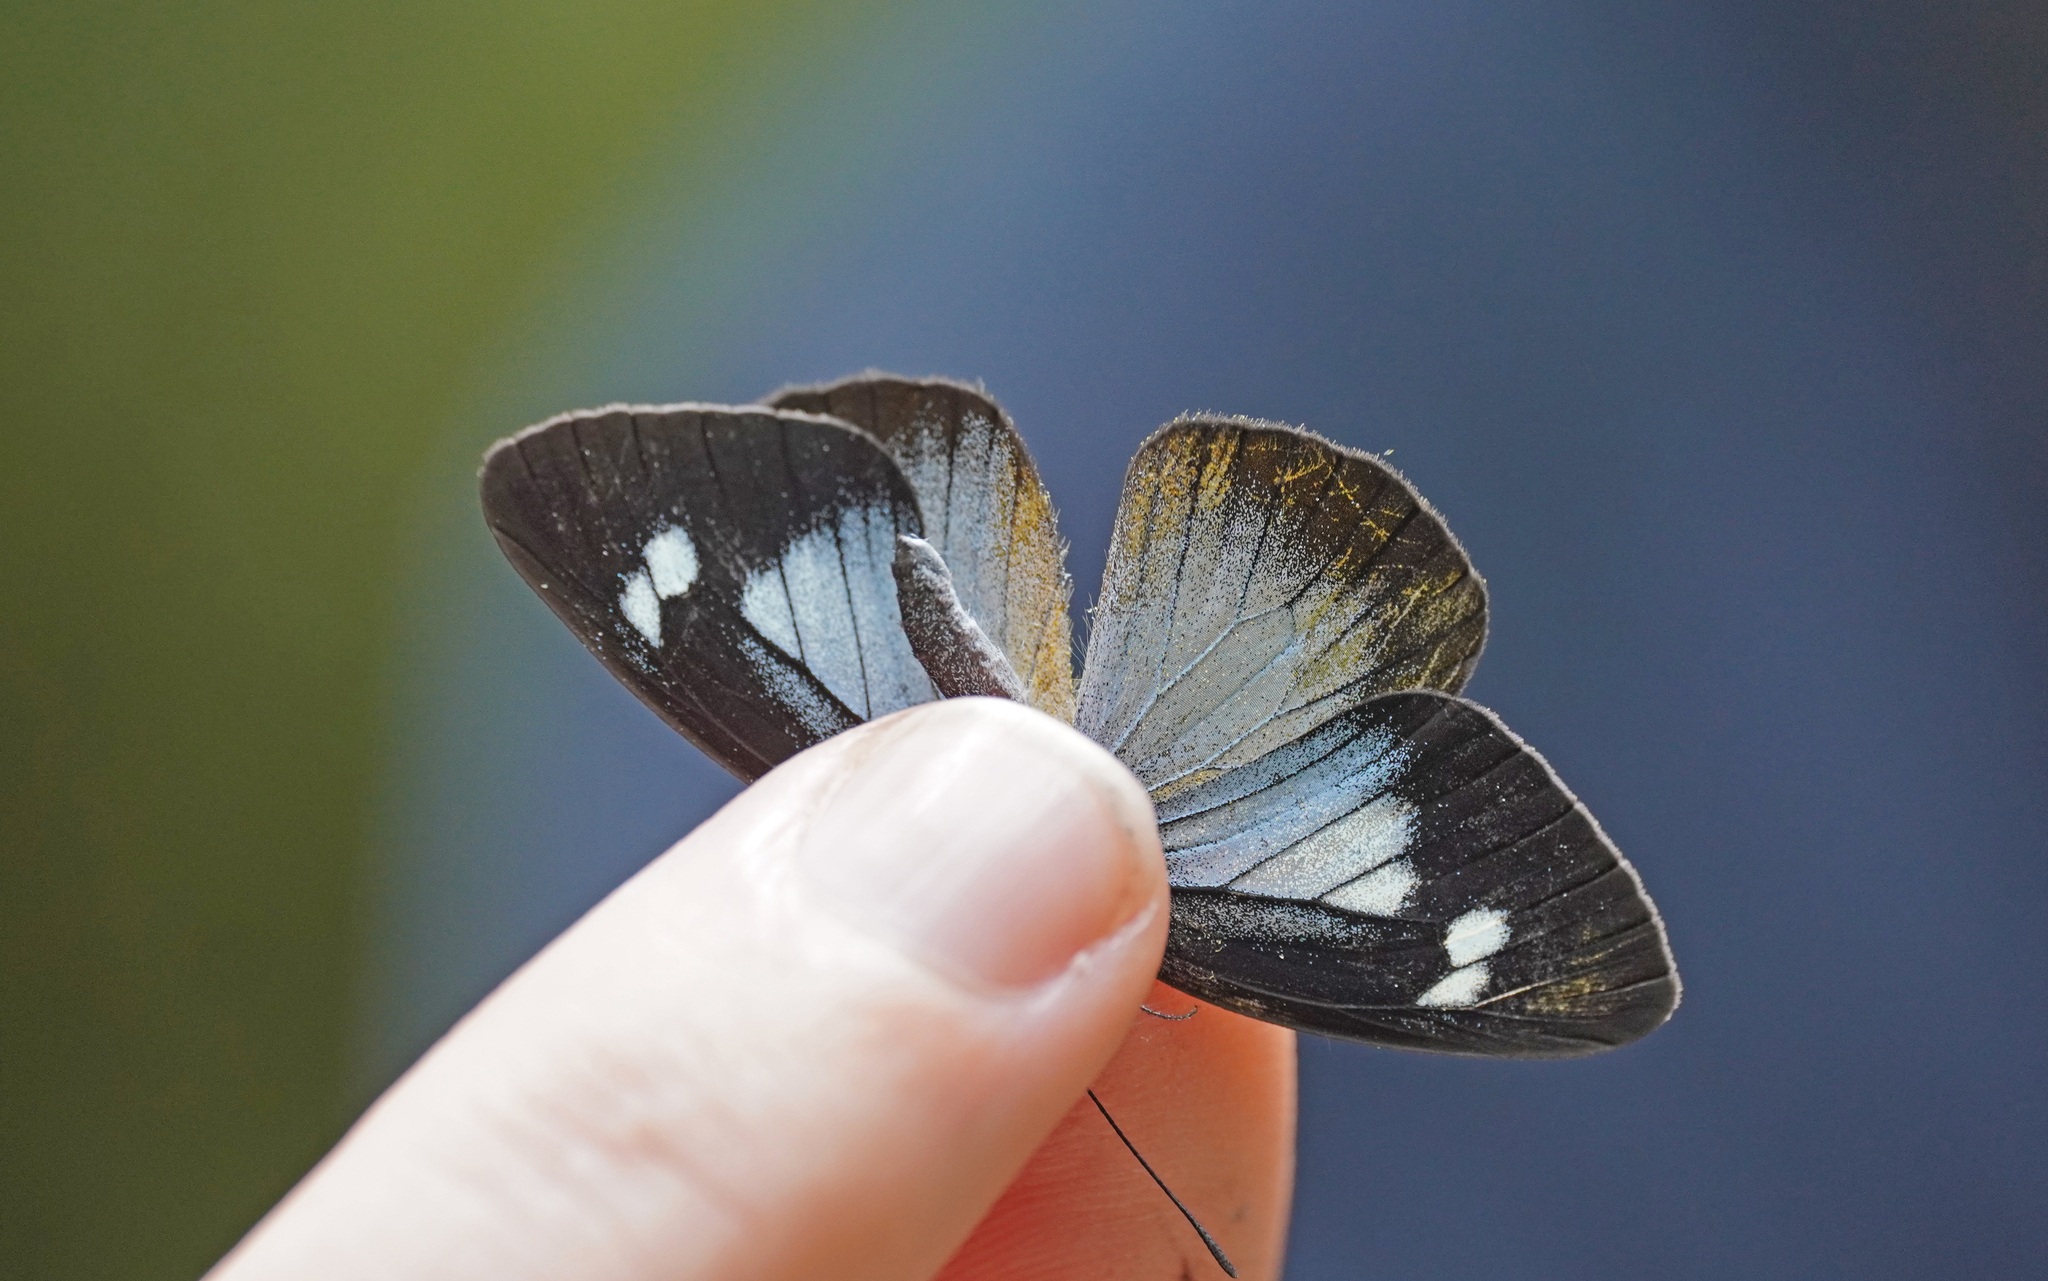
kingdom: Animalia
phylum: Arthropoda
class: Insecta
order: Lepidoptera
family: Pieridae
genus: Leptophobia
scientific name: Leptophobia caesia
